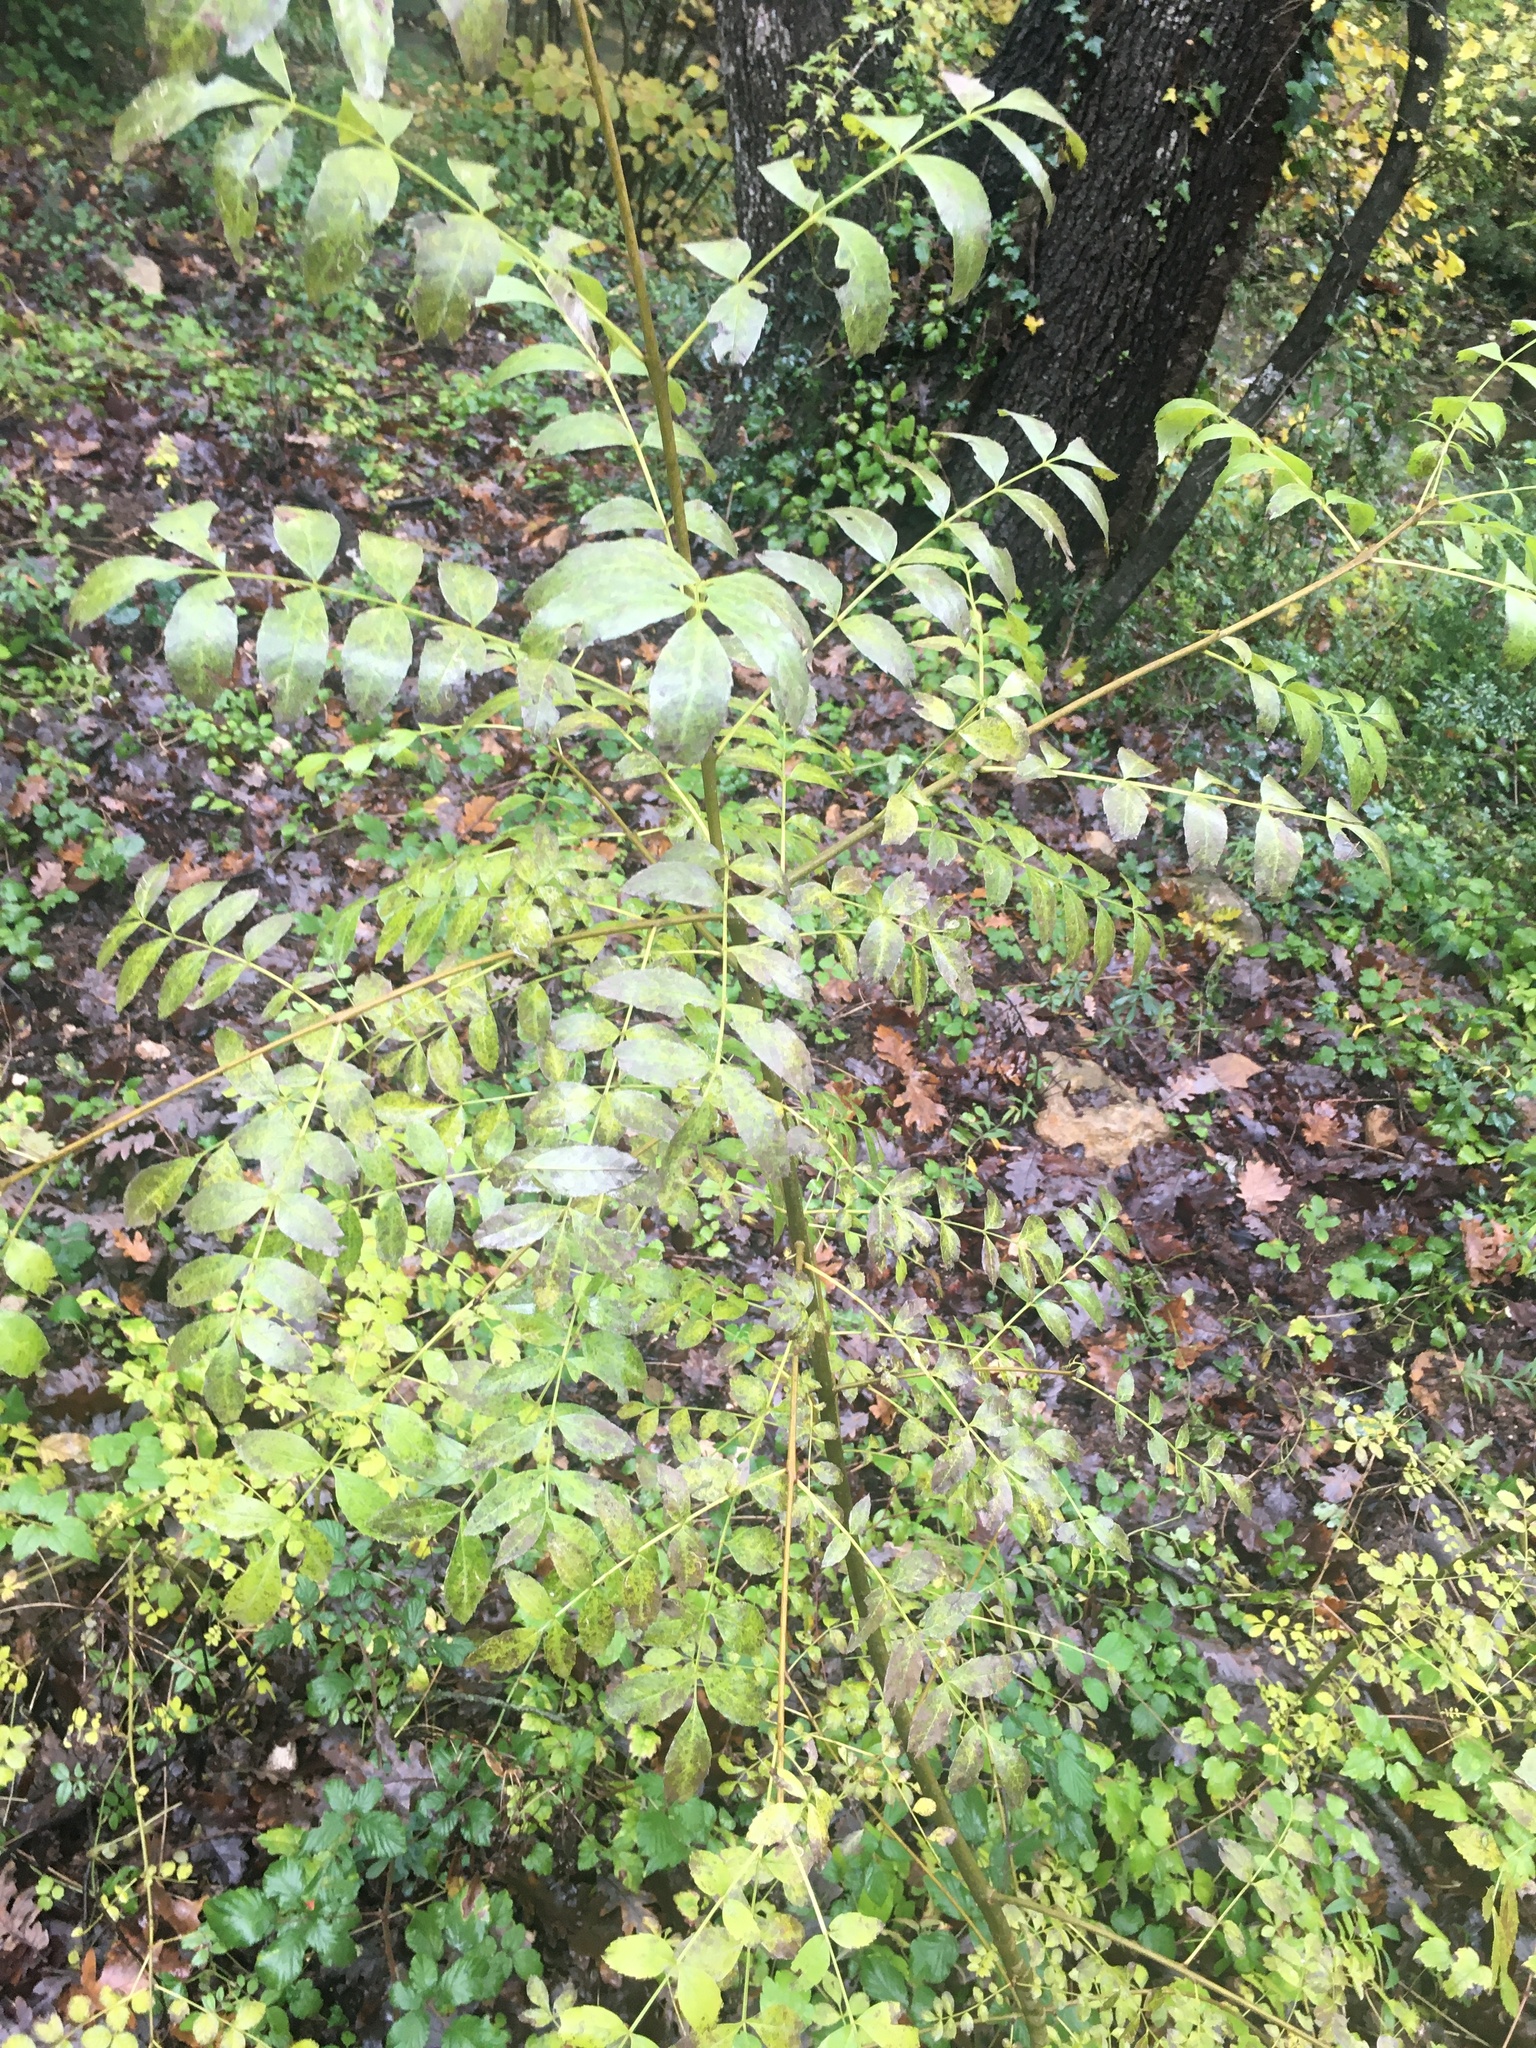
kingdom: Plantae
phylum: Tracheophyta
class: Magnoliopsida
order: Lamiales
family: Oleaceae
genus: Fraxinus
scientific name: Fraxinus excelsior
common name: European ash
